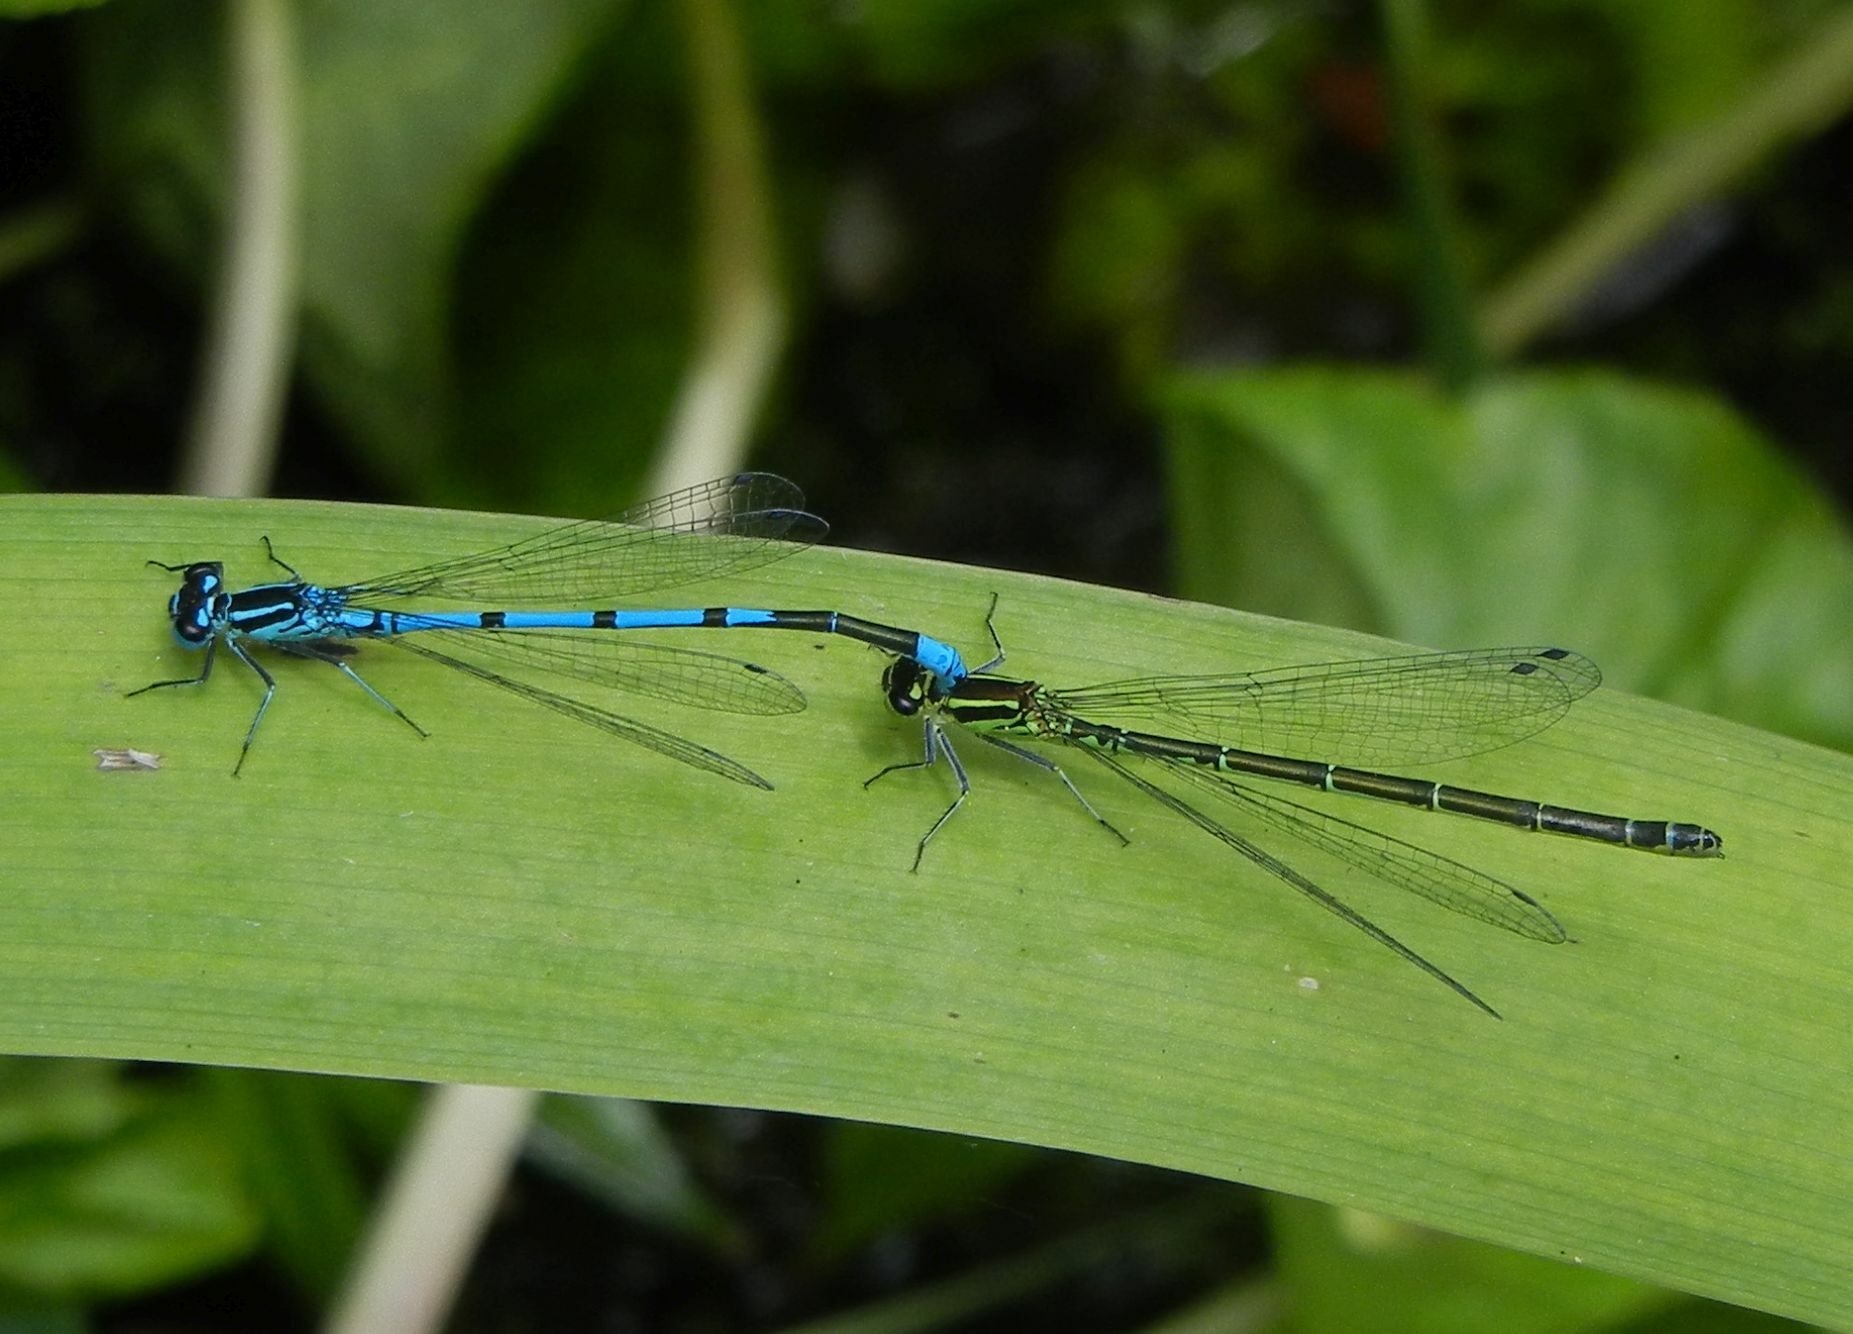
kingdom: Animalia
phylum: Arthropoda
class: Insecta
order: Odonata
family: Coenagrionidae
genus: Coenagrion
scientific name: Coenagrion puella
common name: Azure damselfly
